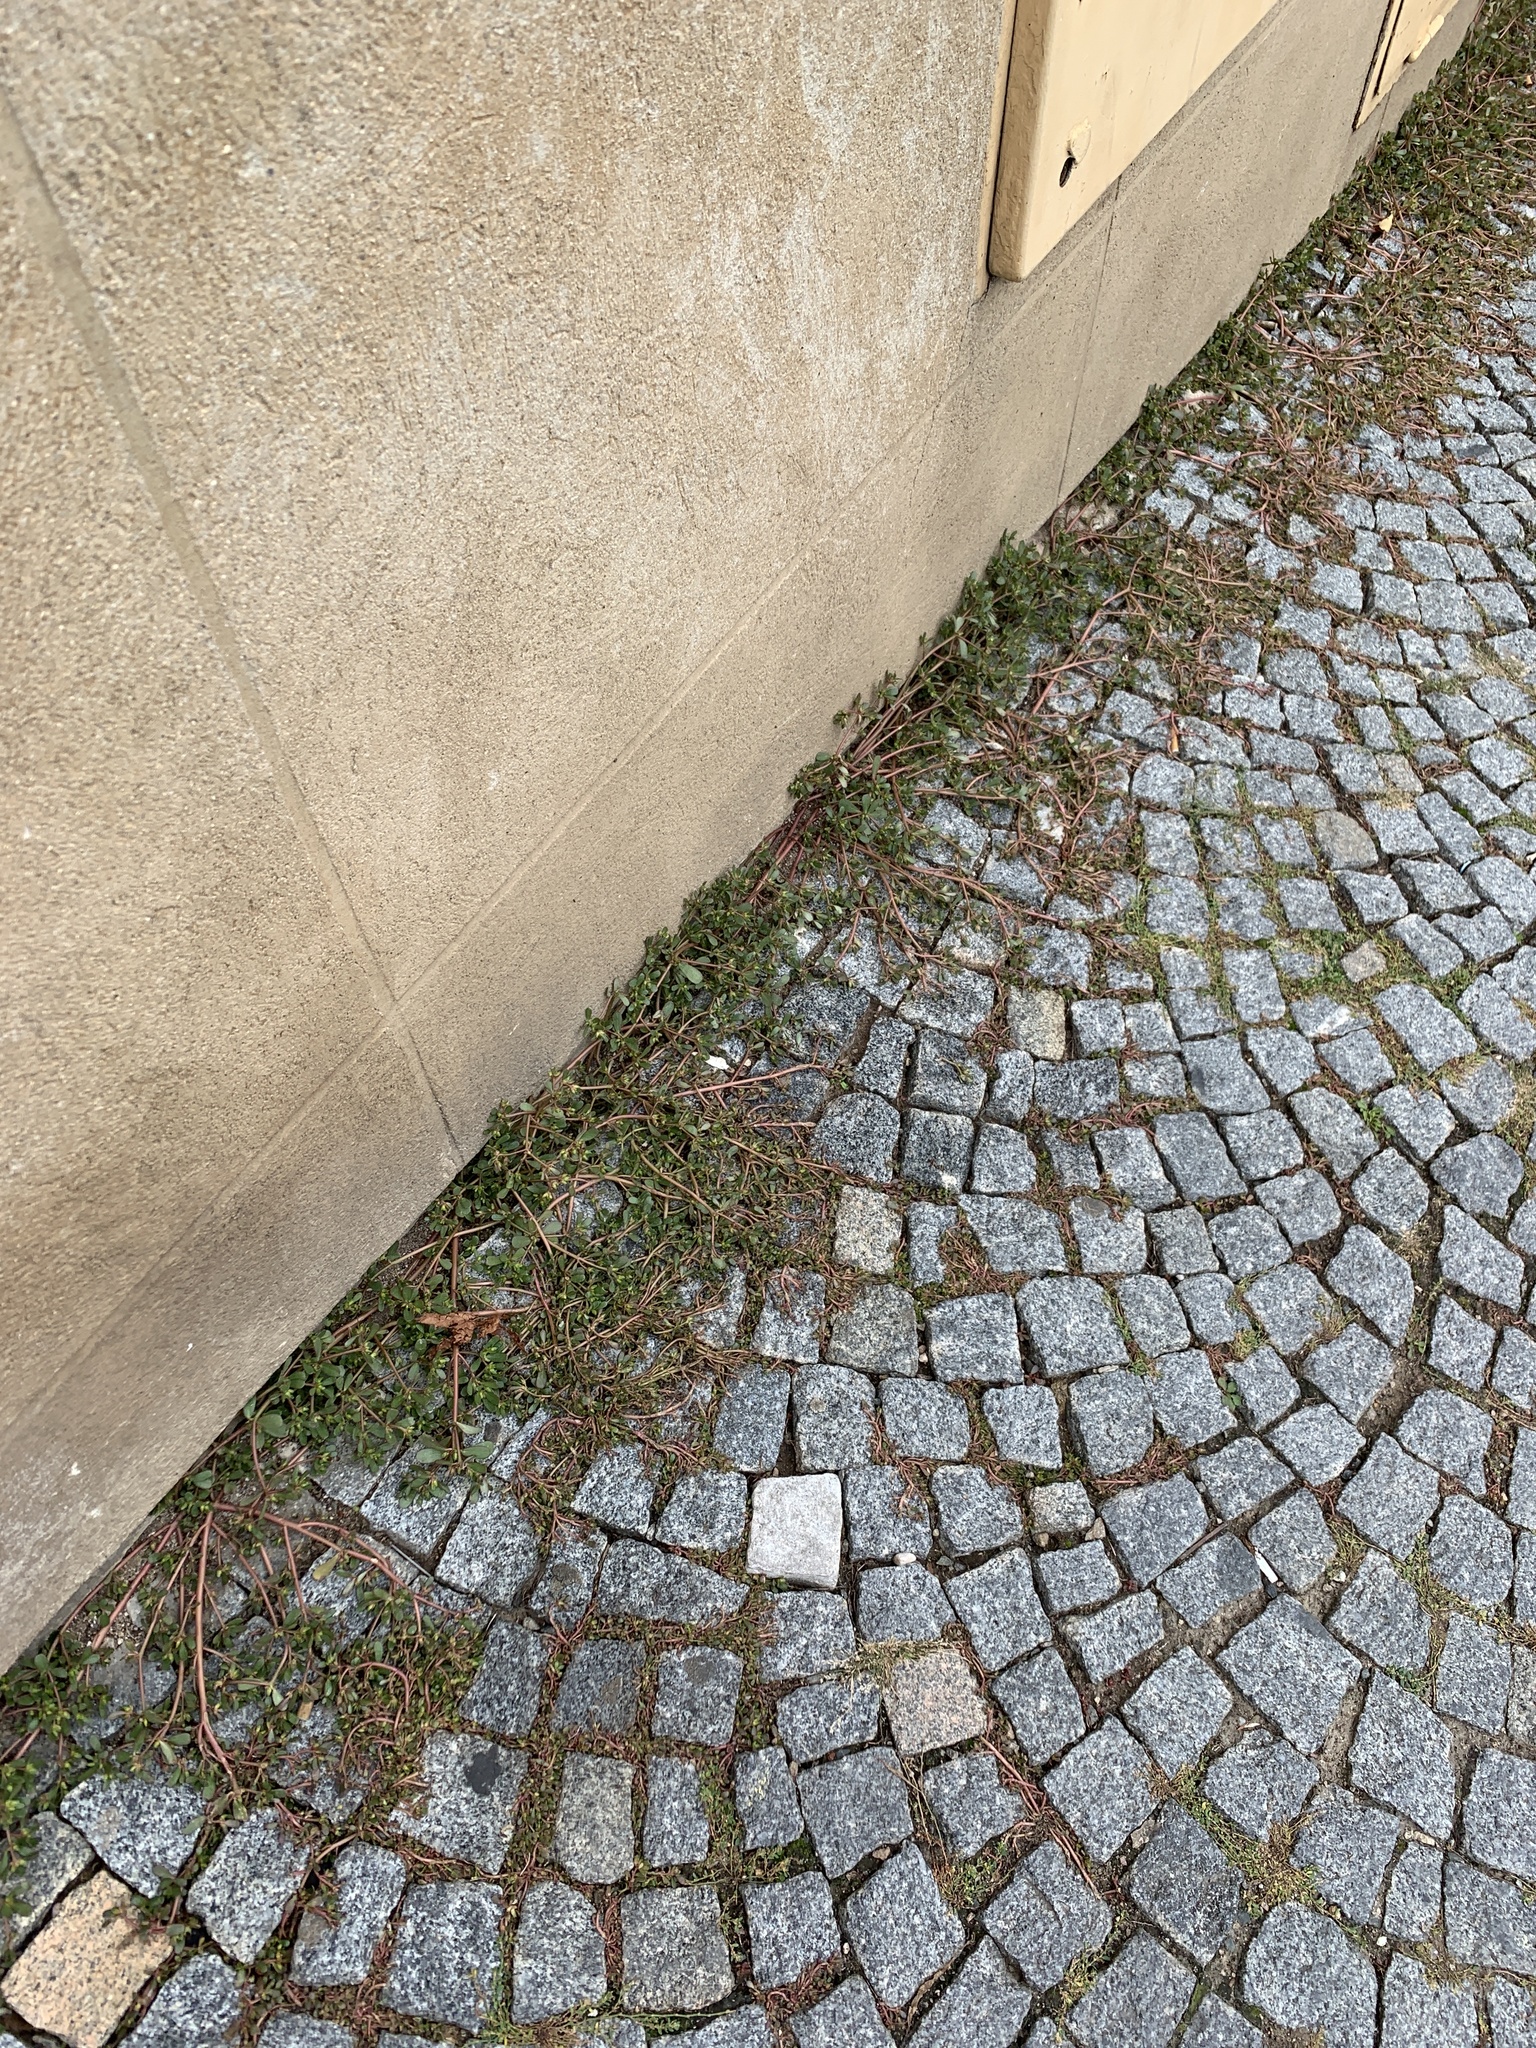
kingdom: Plantae
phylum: Tracheophyta
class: Magnoliopsida
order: Caryophyllales
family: Portulacaceae
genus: Portulaca
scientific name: Portulaca oleracea
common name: Common purslane
